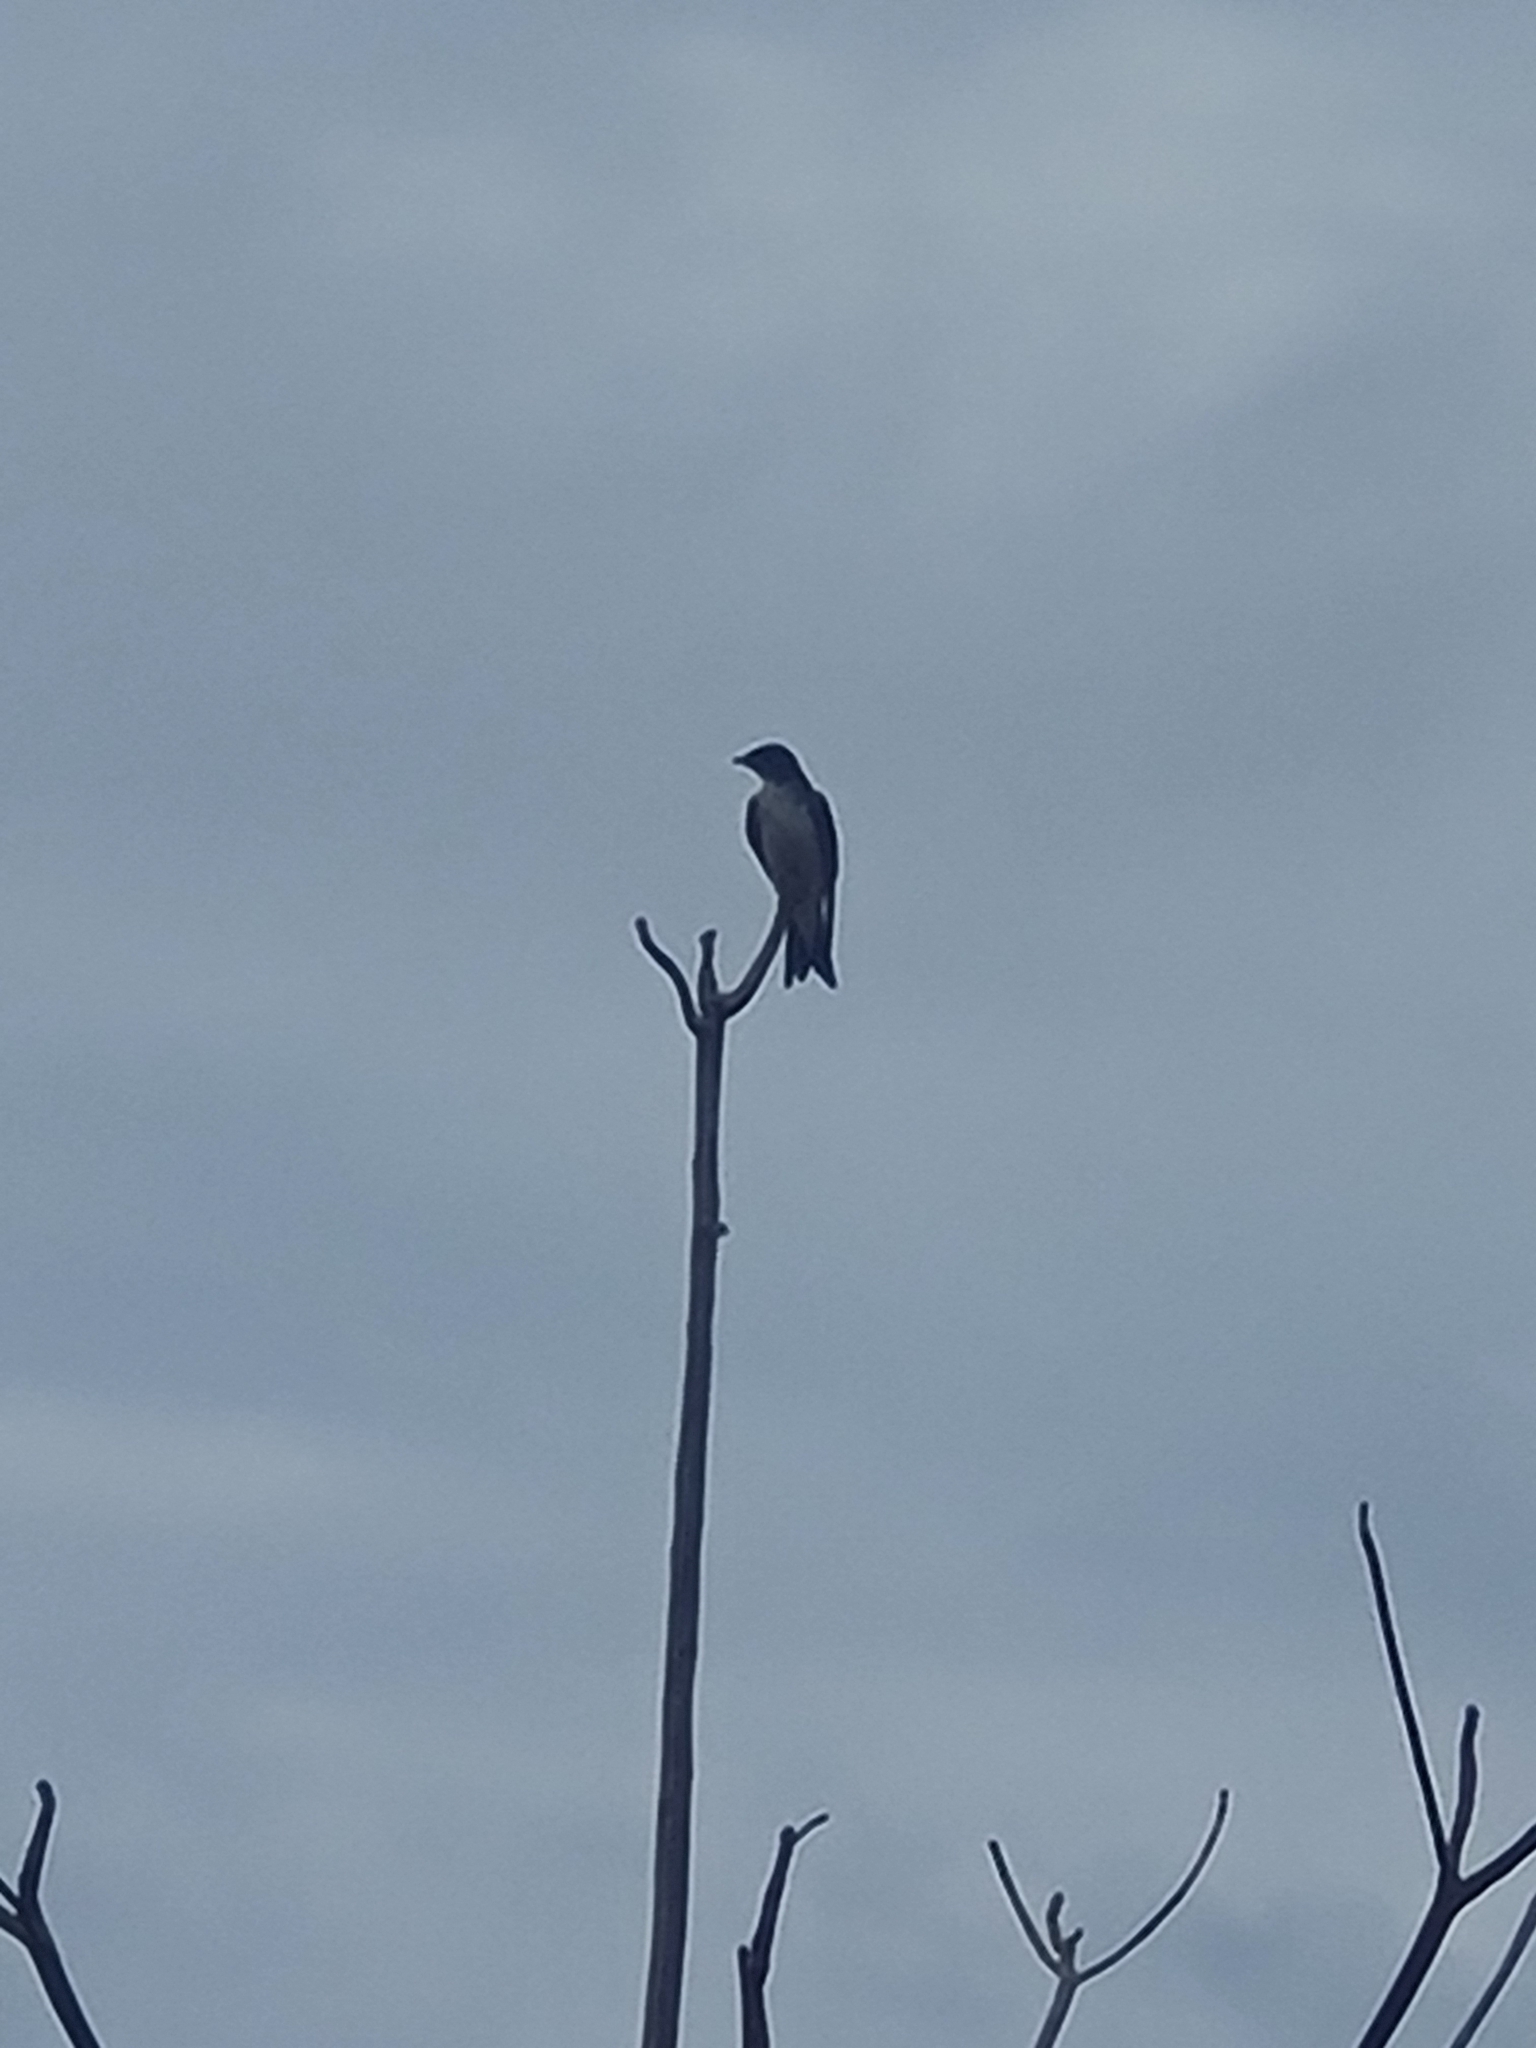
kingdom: Animalia
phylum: Chordata
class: Aves
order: Passeriformes
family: Hirundinidae
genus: Progne
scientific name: Progne chalybea
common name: Grey-breasted martin
